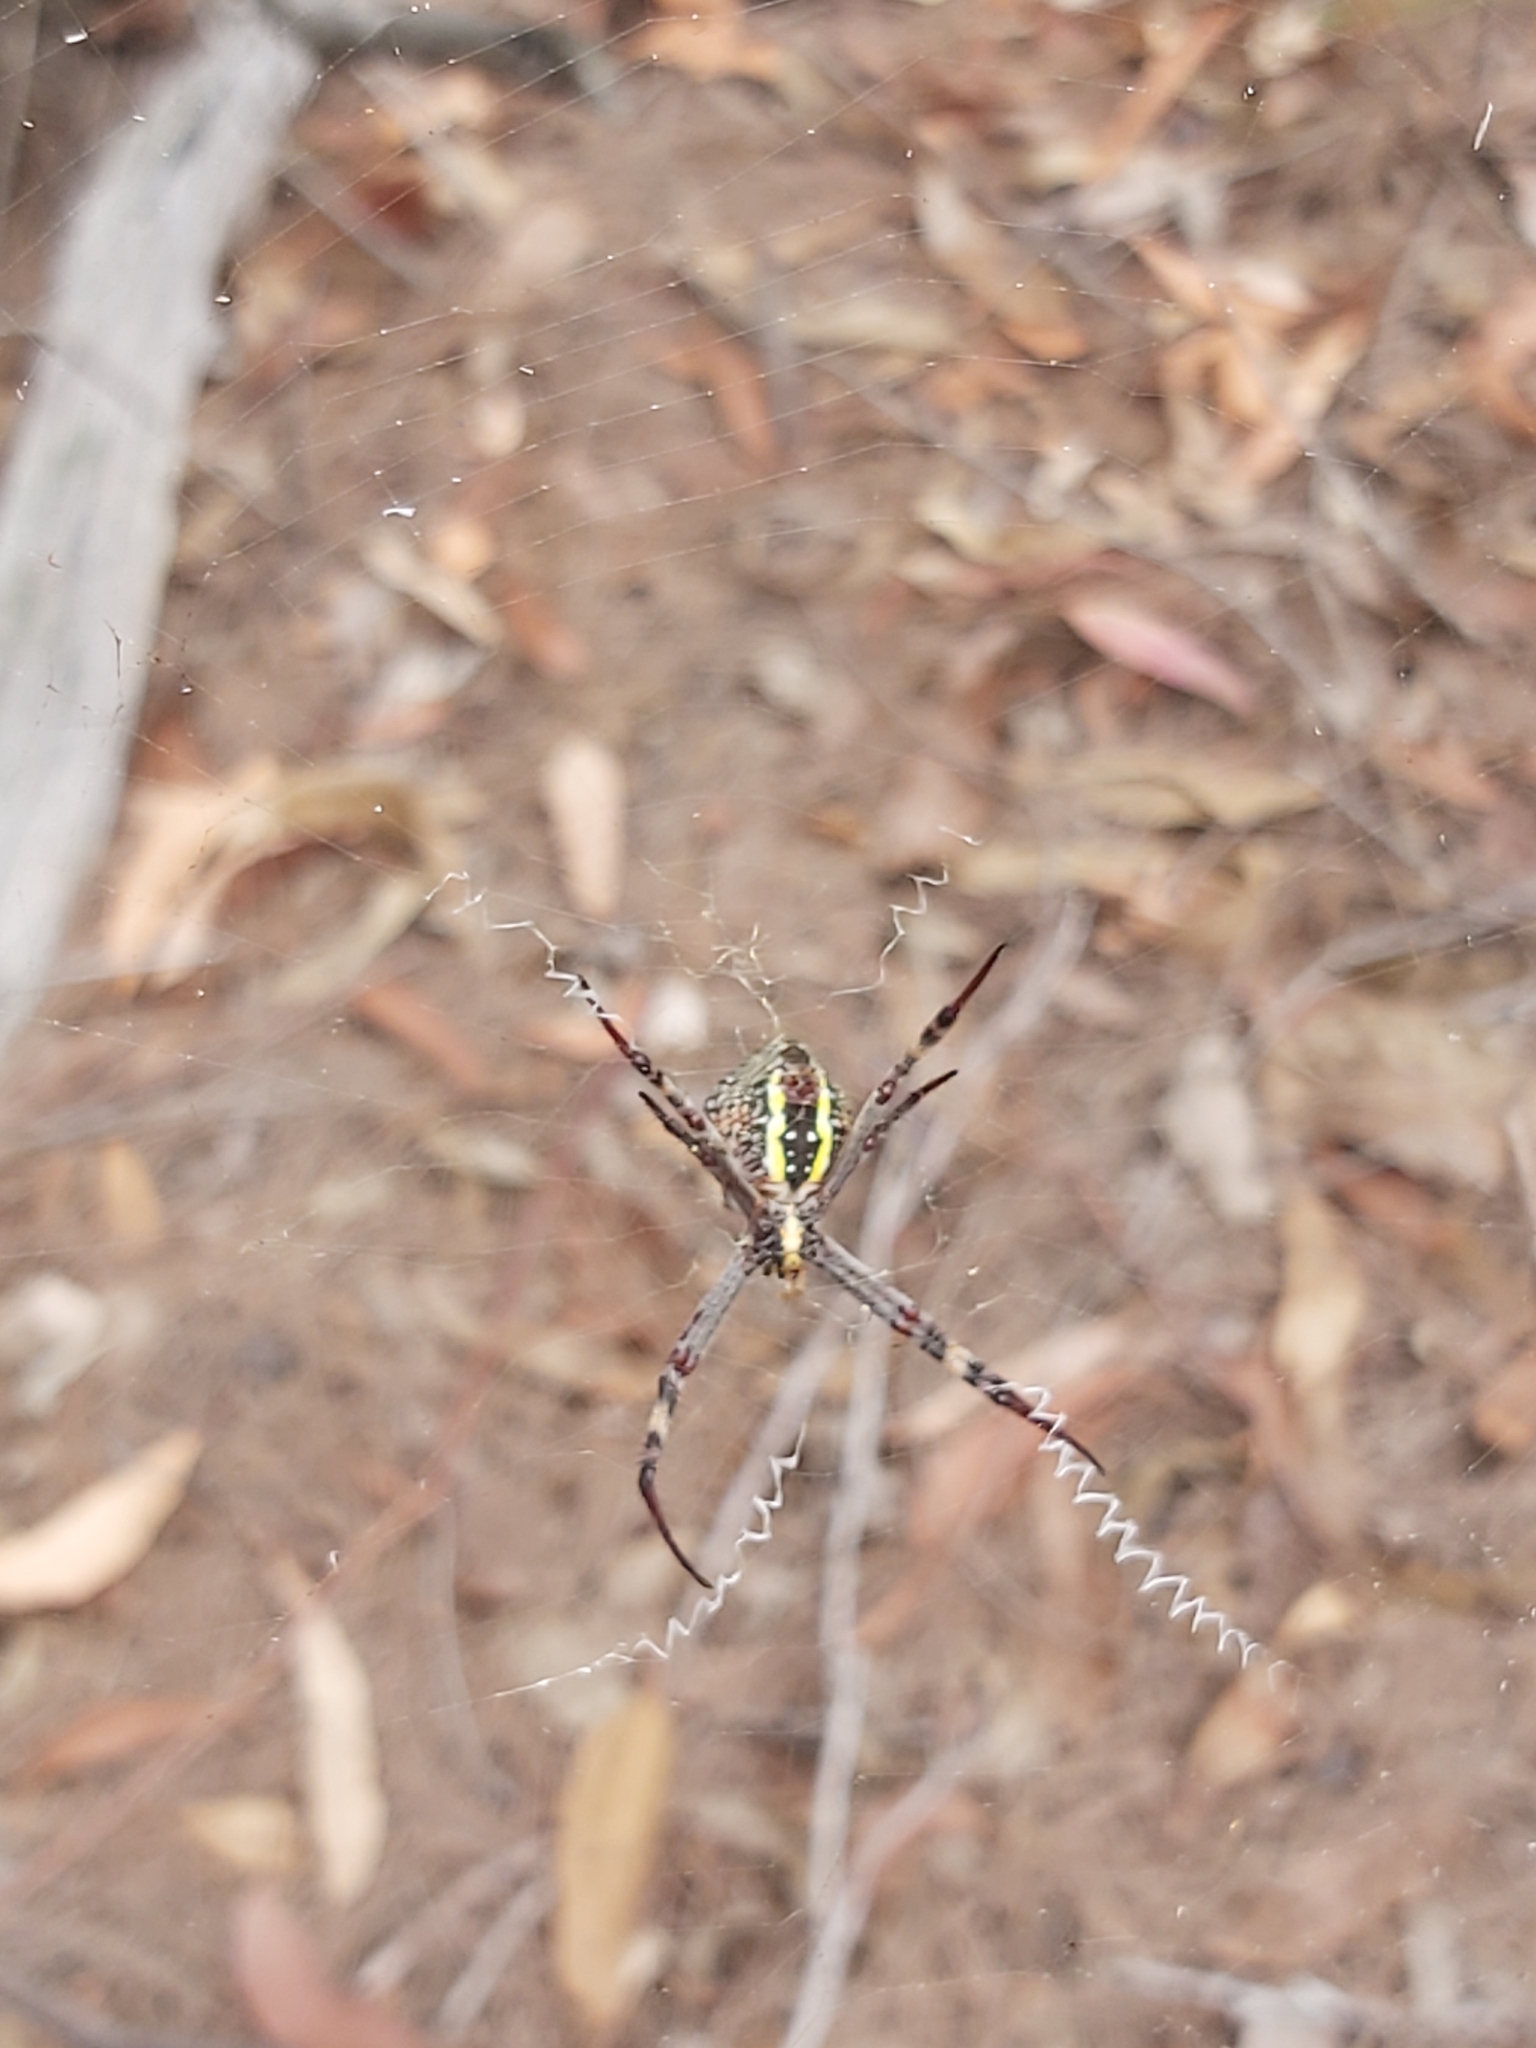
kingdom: Animalia
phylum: Arthropoda
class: Arachnida
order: Araneae
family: Araneidae
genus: Argiope
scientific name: Argiope keyserlingi
